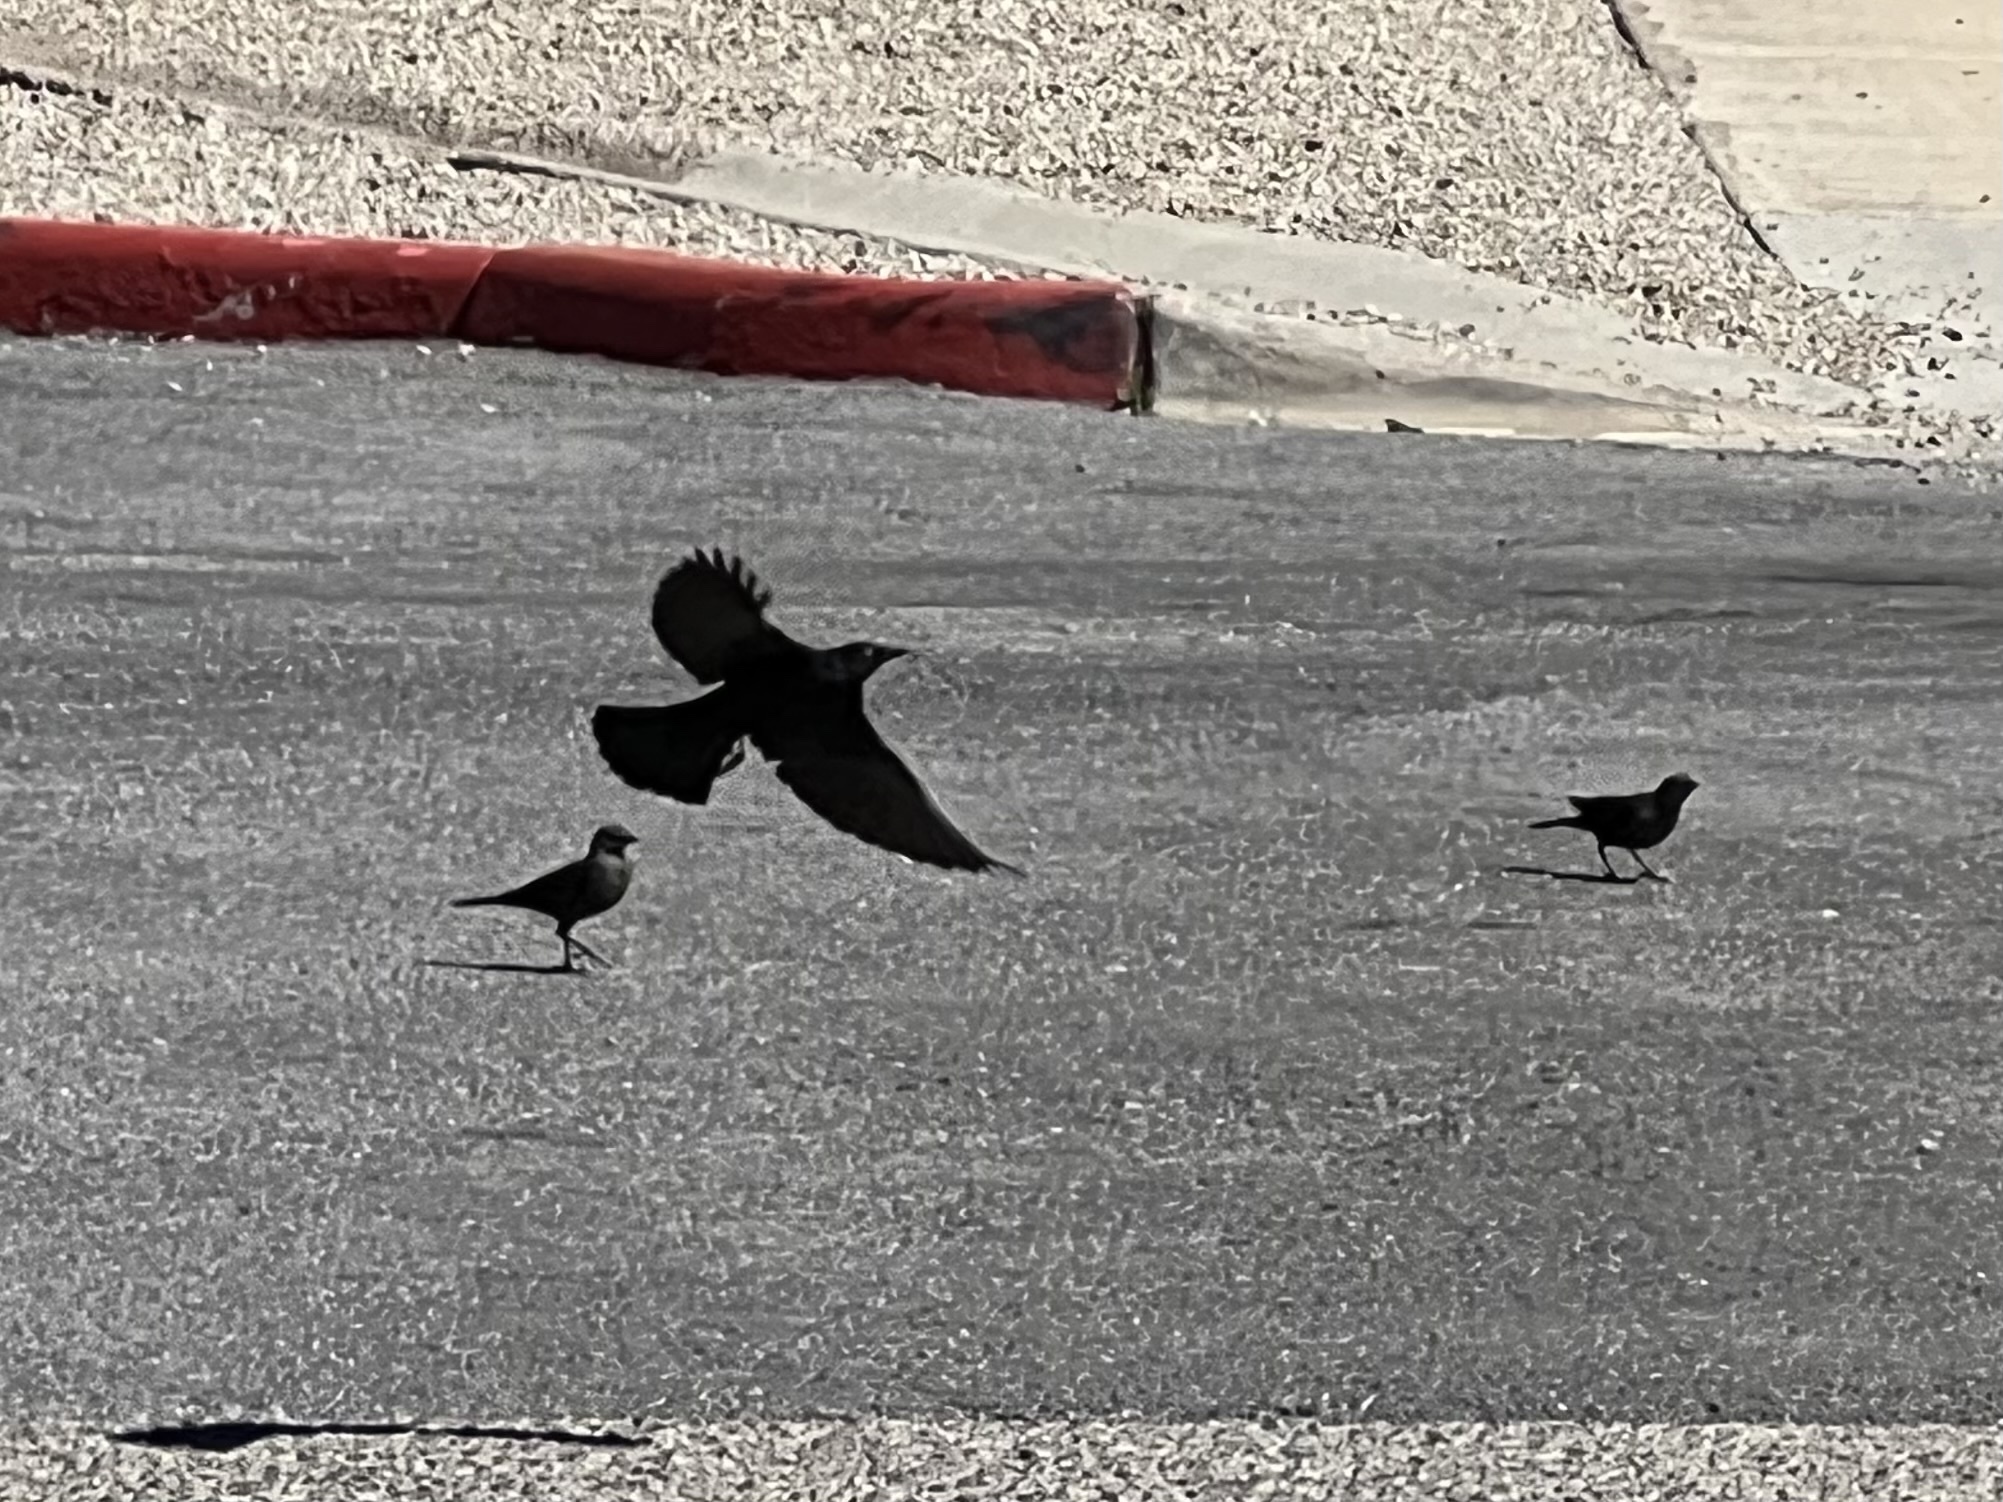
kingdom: Animalia
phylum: Chordata
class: Aves
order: Passeriformes
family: Icteridae
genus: Euphagus
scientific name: Euphagus cyanocephalus
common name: Brewer's blackbird
